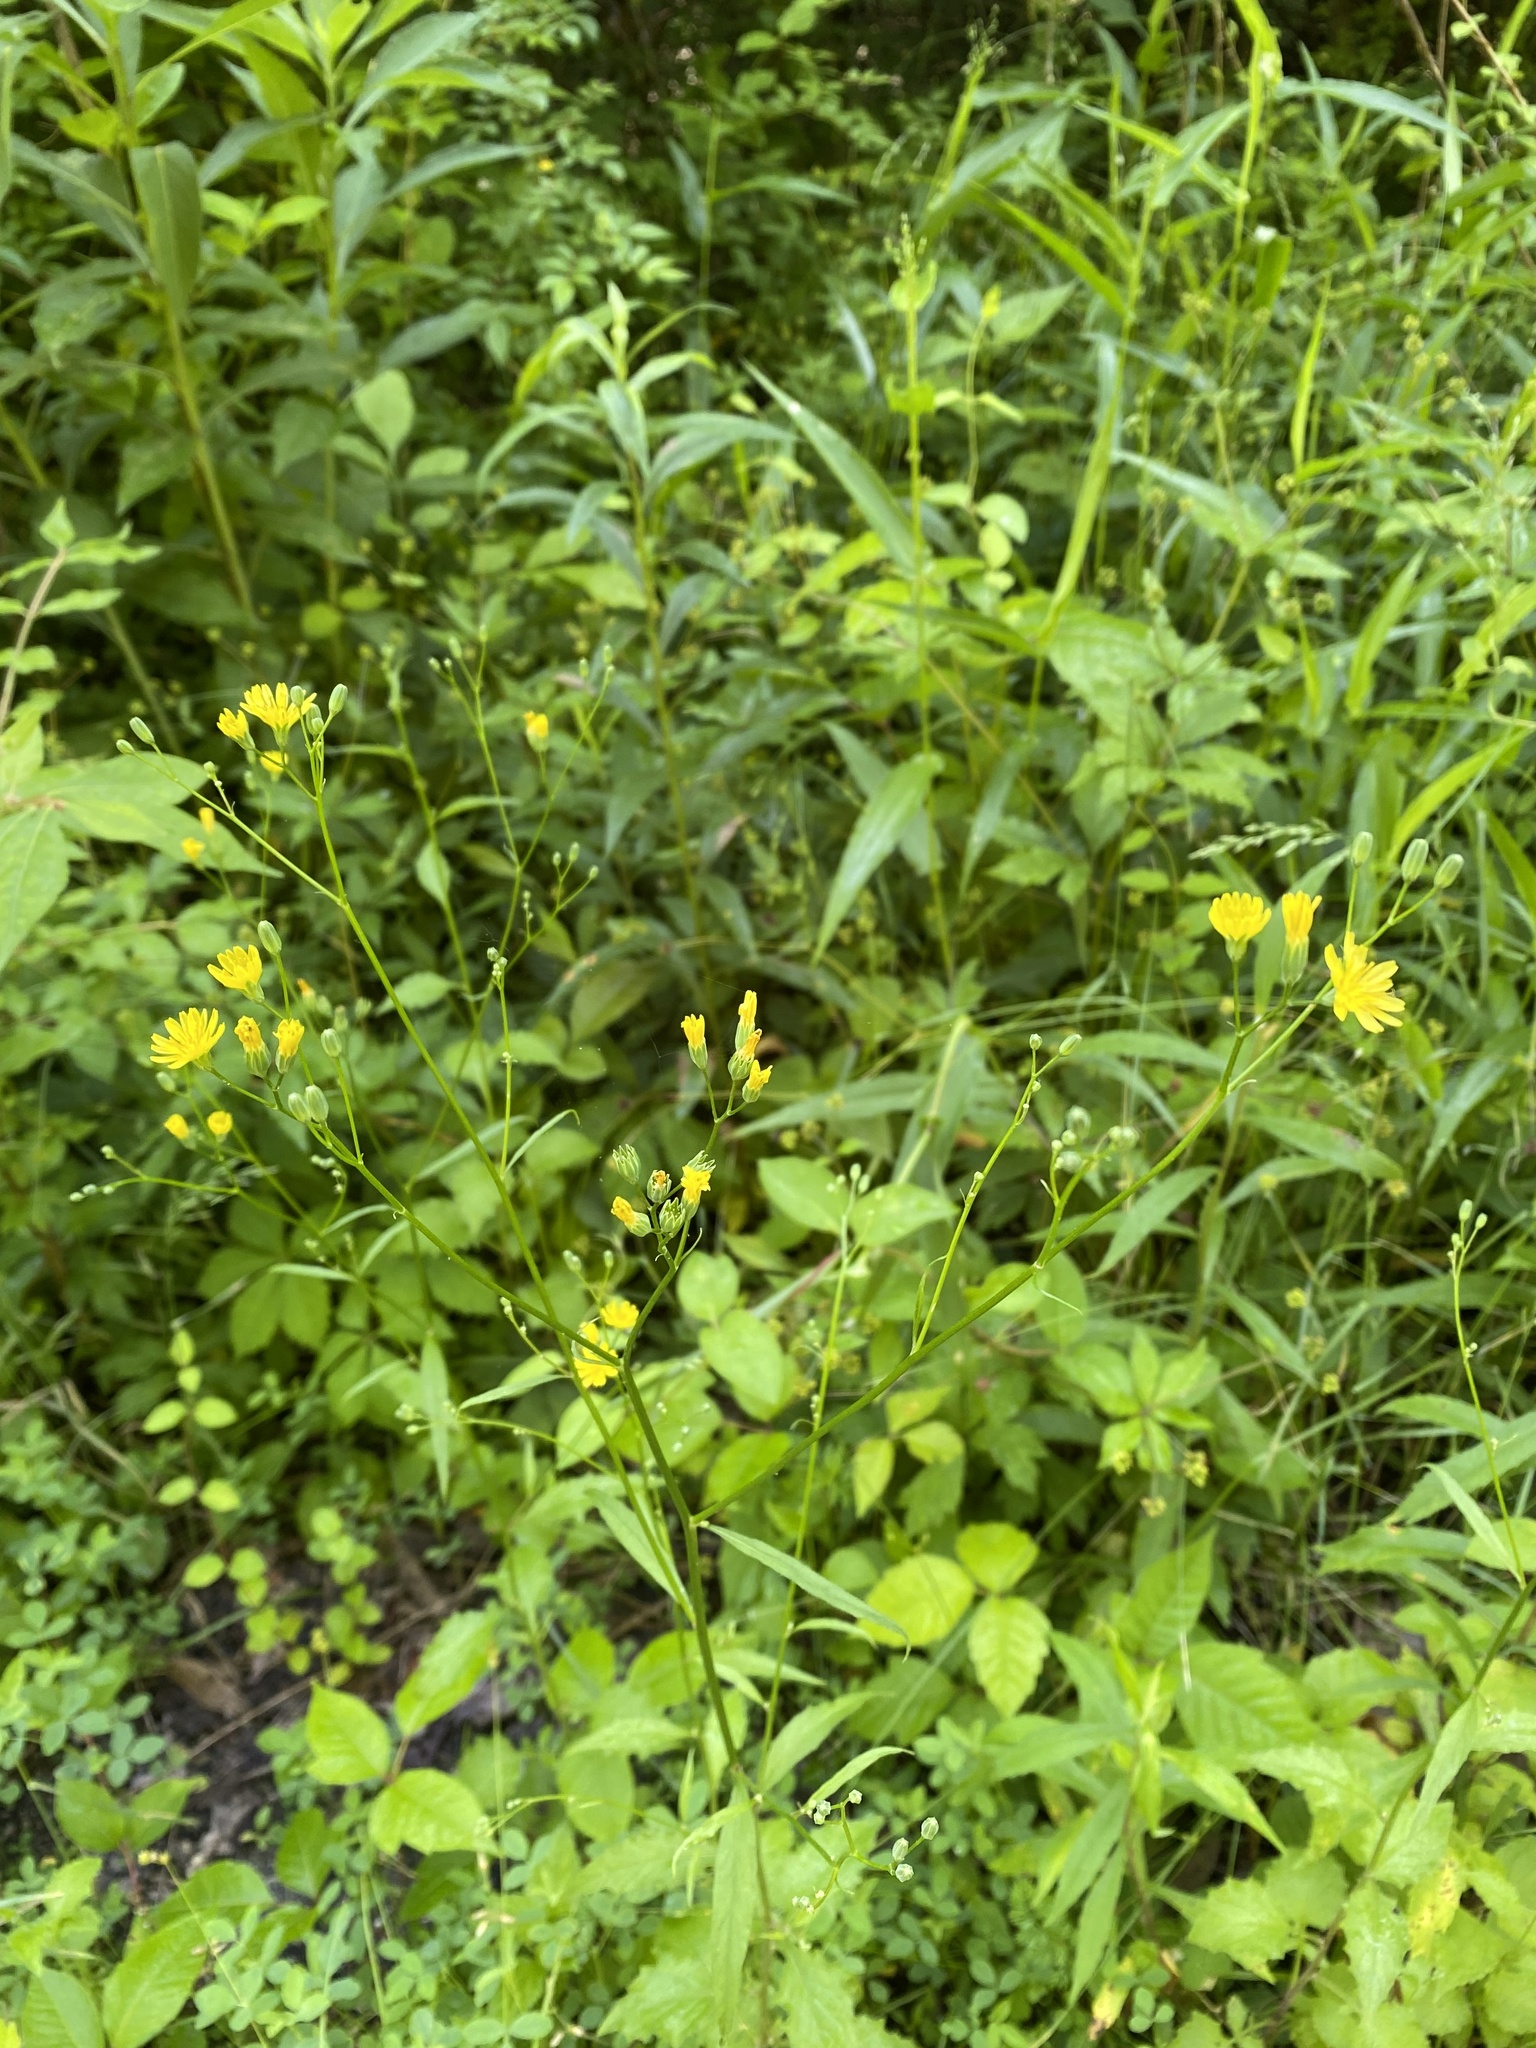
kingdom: Plantae
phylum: Tracheophyta
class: Magnoliopsida
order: Asterales
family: Asteraceae
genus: Lapsana
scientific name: Lapsana communis
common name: Nipplewort
